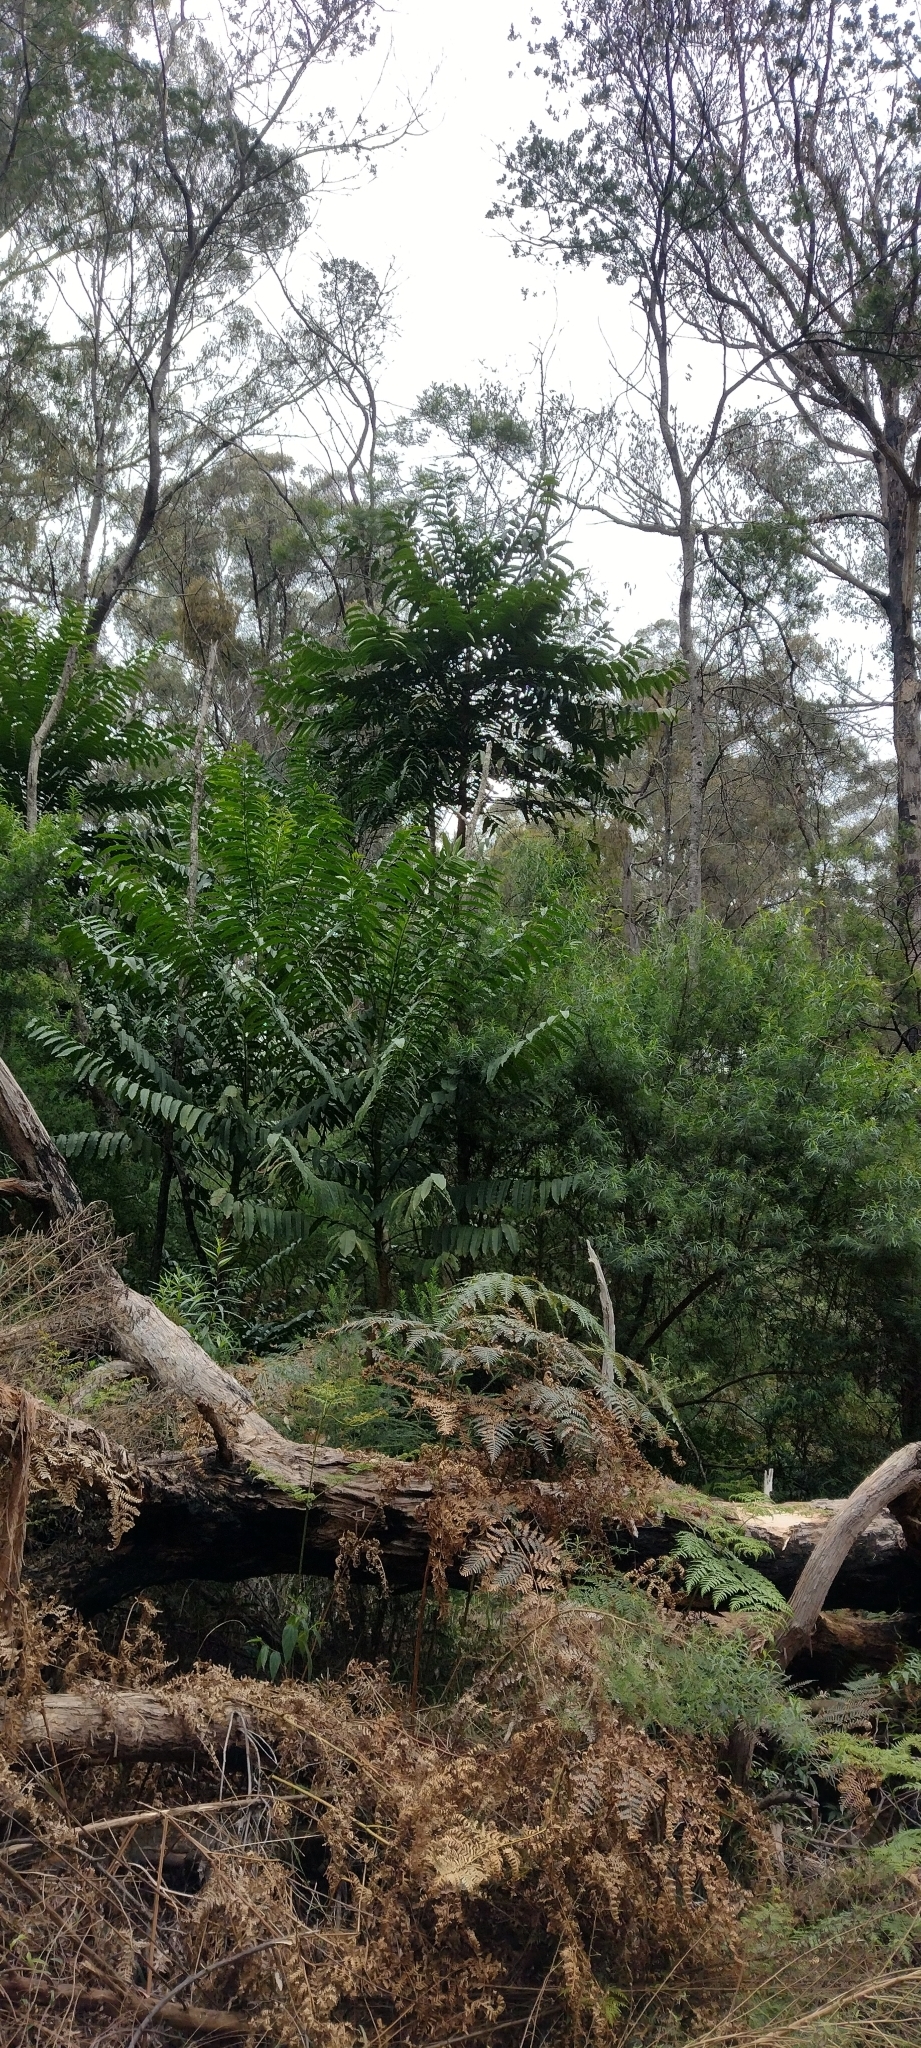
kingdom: Plantae
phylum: Tracheophyta
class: Magnoliopsida
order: Apiales
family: Araliaceae
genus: Polyscias
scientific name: Polyscias murrayi
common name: Pencil cedar
